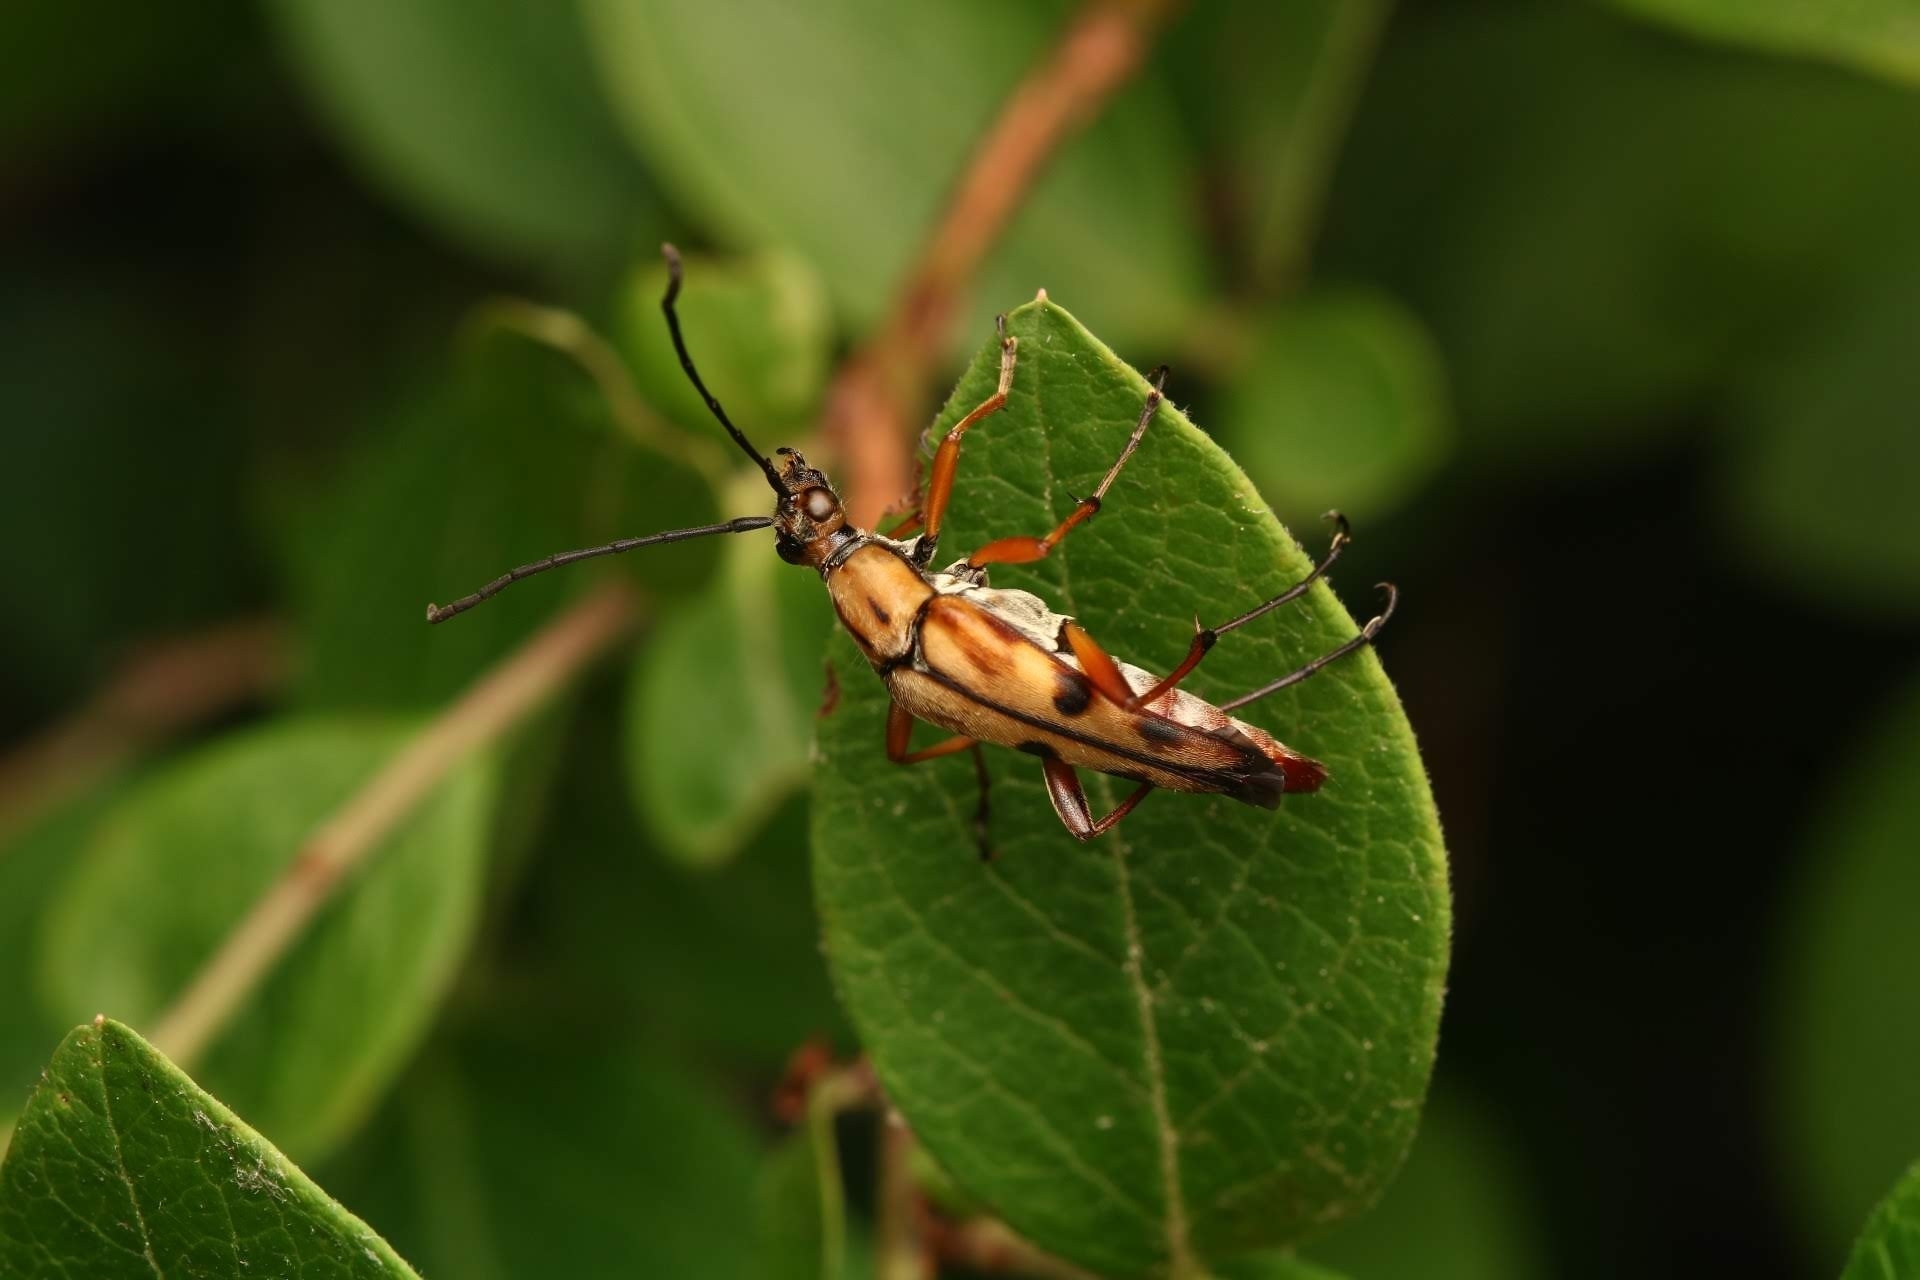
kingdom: Animalia
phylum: Arthropoda
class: Insecta
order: Coleoptera
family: Cerambycidae
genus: Strangalia
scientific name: Strangalia famelica
